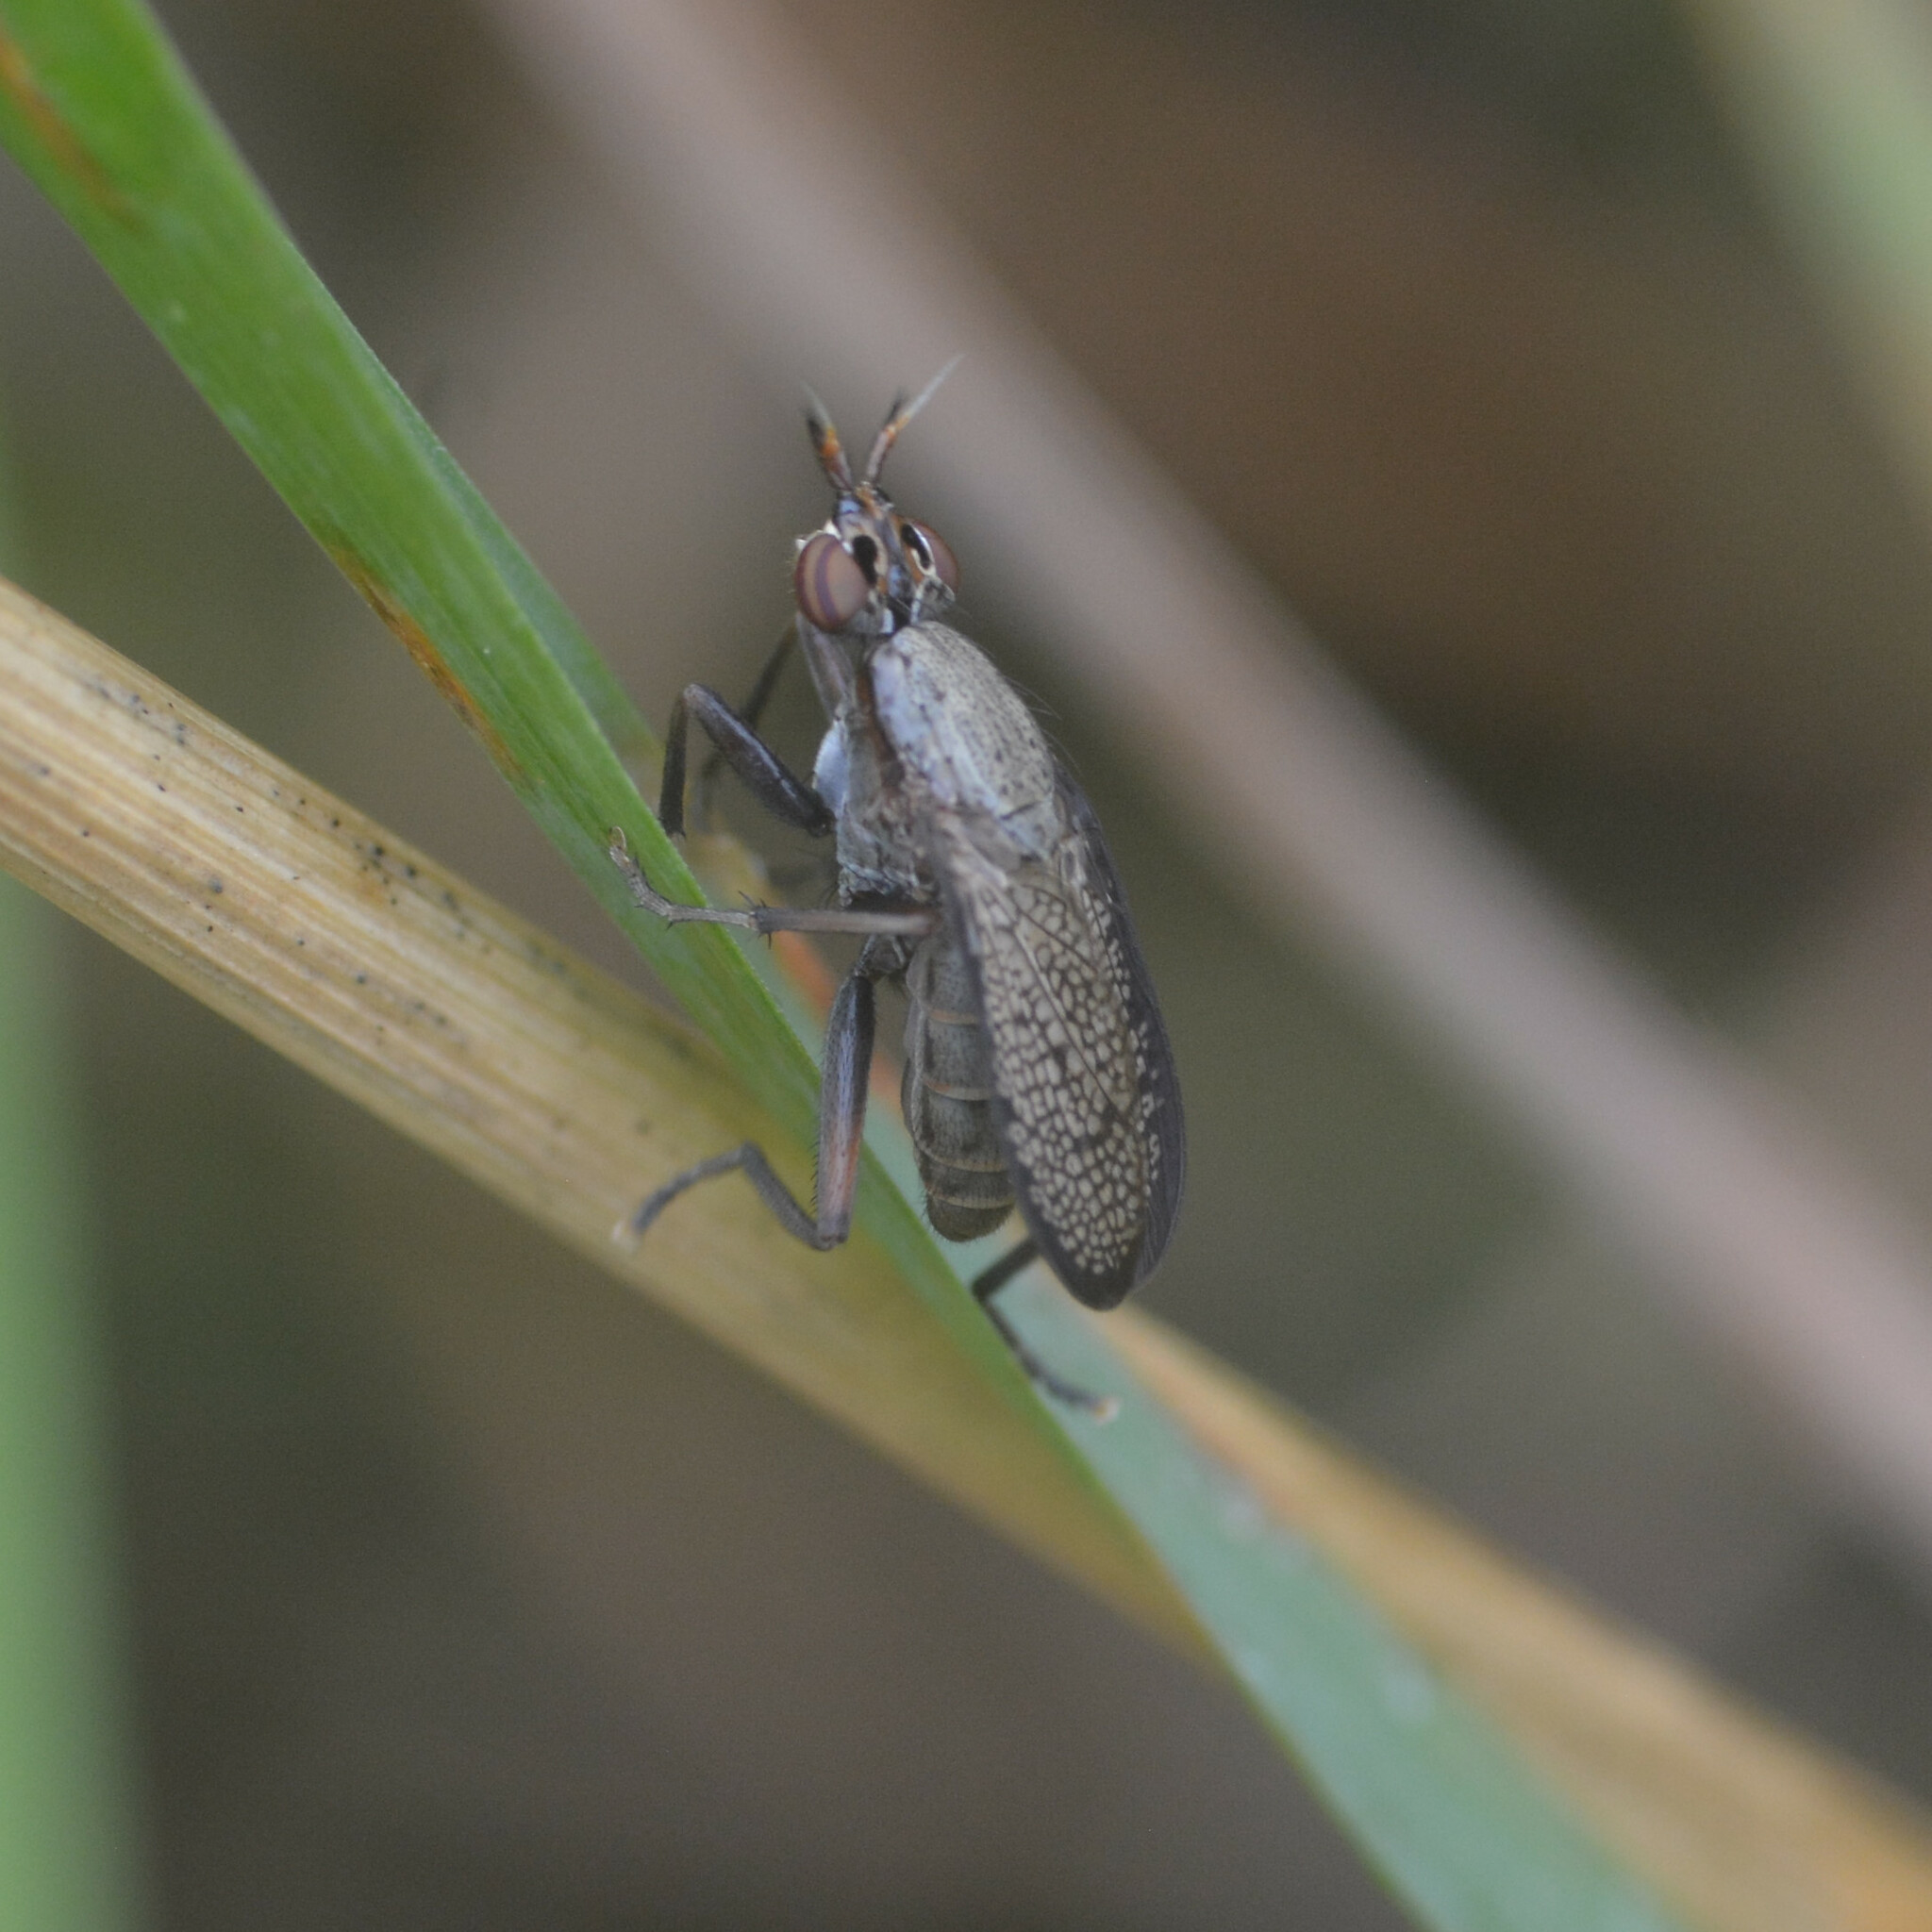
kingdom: Animalia
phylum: Arthropoda
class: Insecta
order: Diptera
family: Sciomyzidae
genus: Coremacera
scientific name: Coremacera marginata
